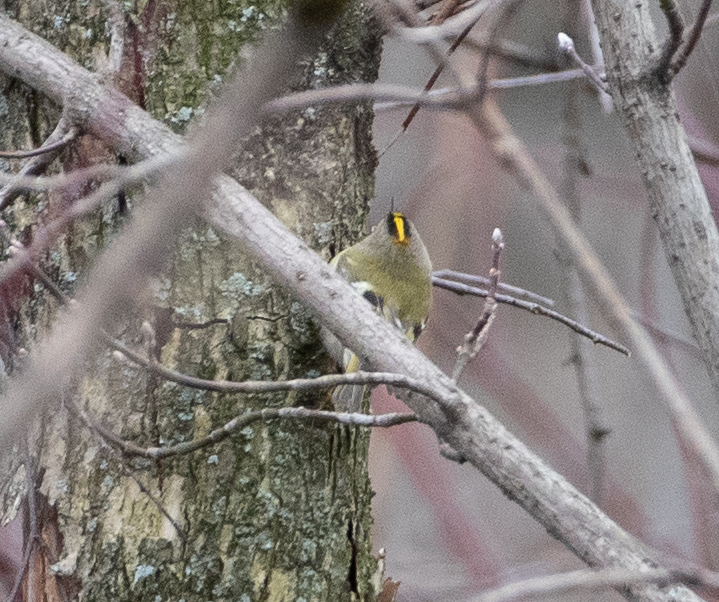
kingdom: Animalia
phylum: Chordata
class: Aves
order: Passeriformes
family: Regulidae
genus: Regulus
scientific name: Regulus regulus
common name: Goldcrest
